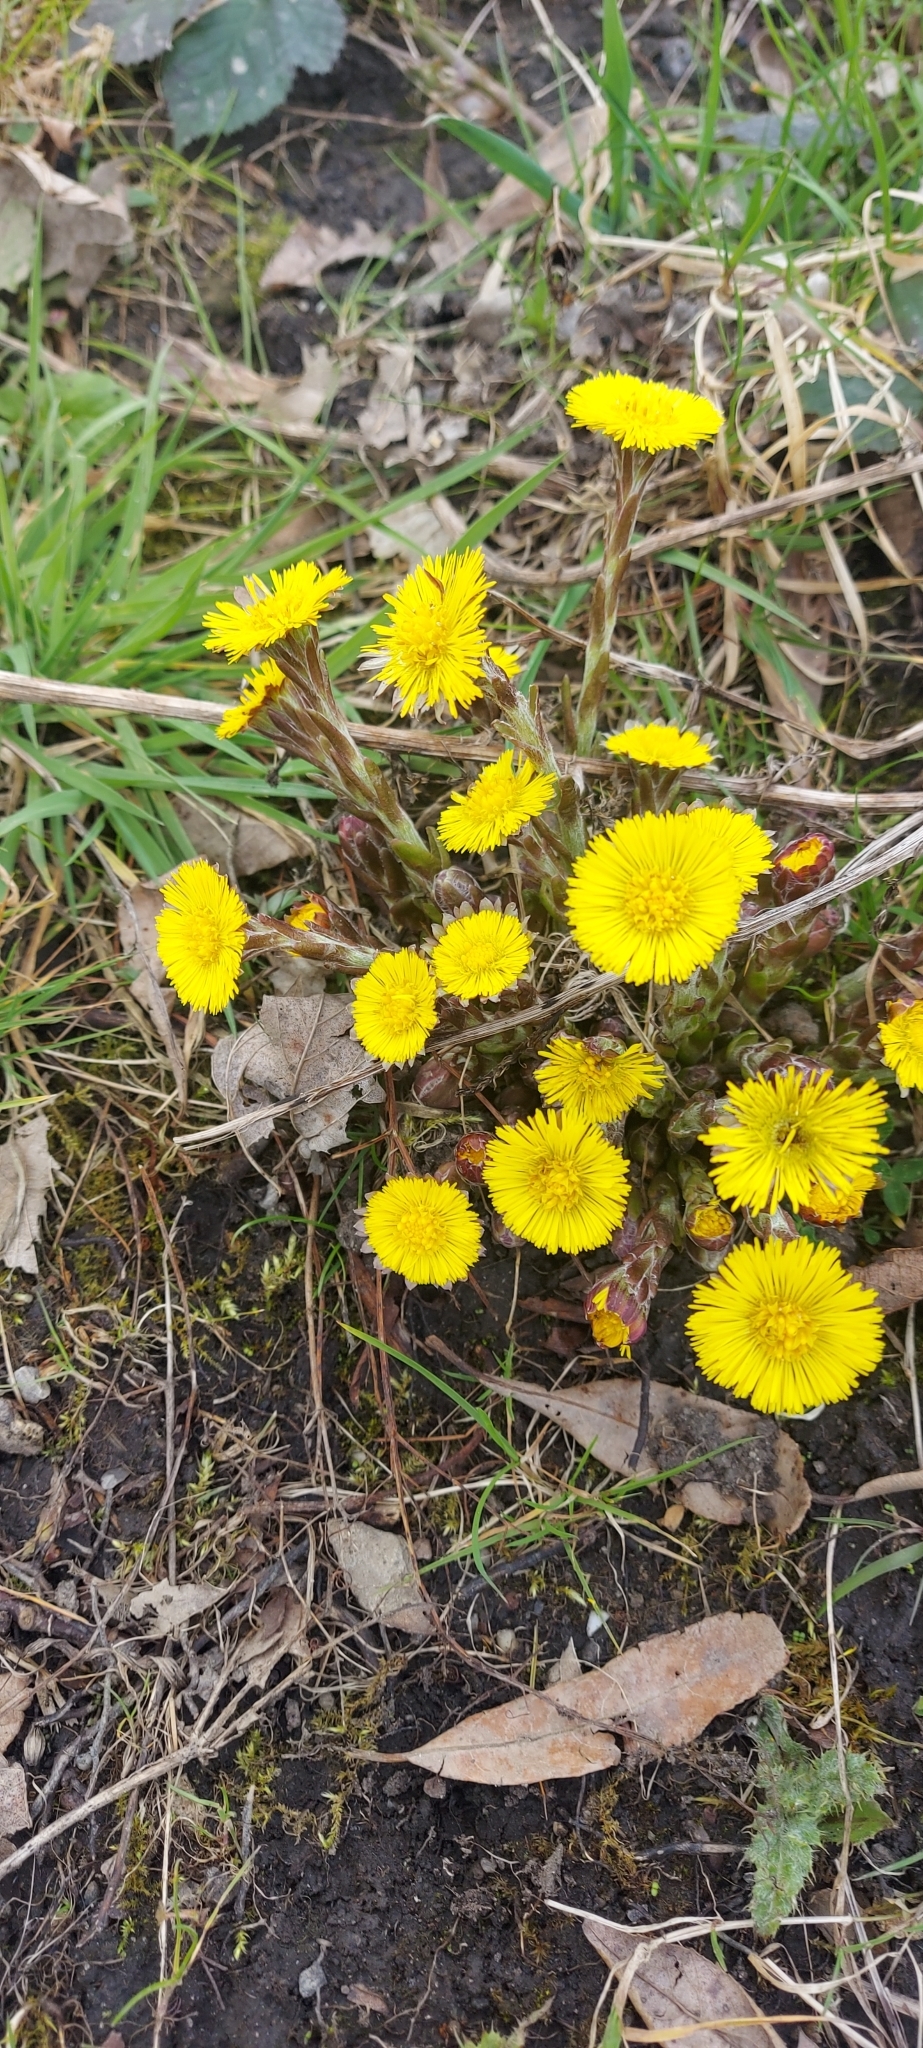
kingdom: Plantae
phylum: Tracheophyta
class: Magnoliopsida
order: Asterales
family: Asteraceae
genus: Tussilago
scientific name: Tussilago farfara
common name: Coltsfoot
